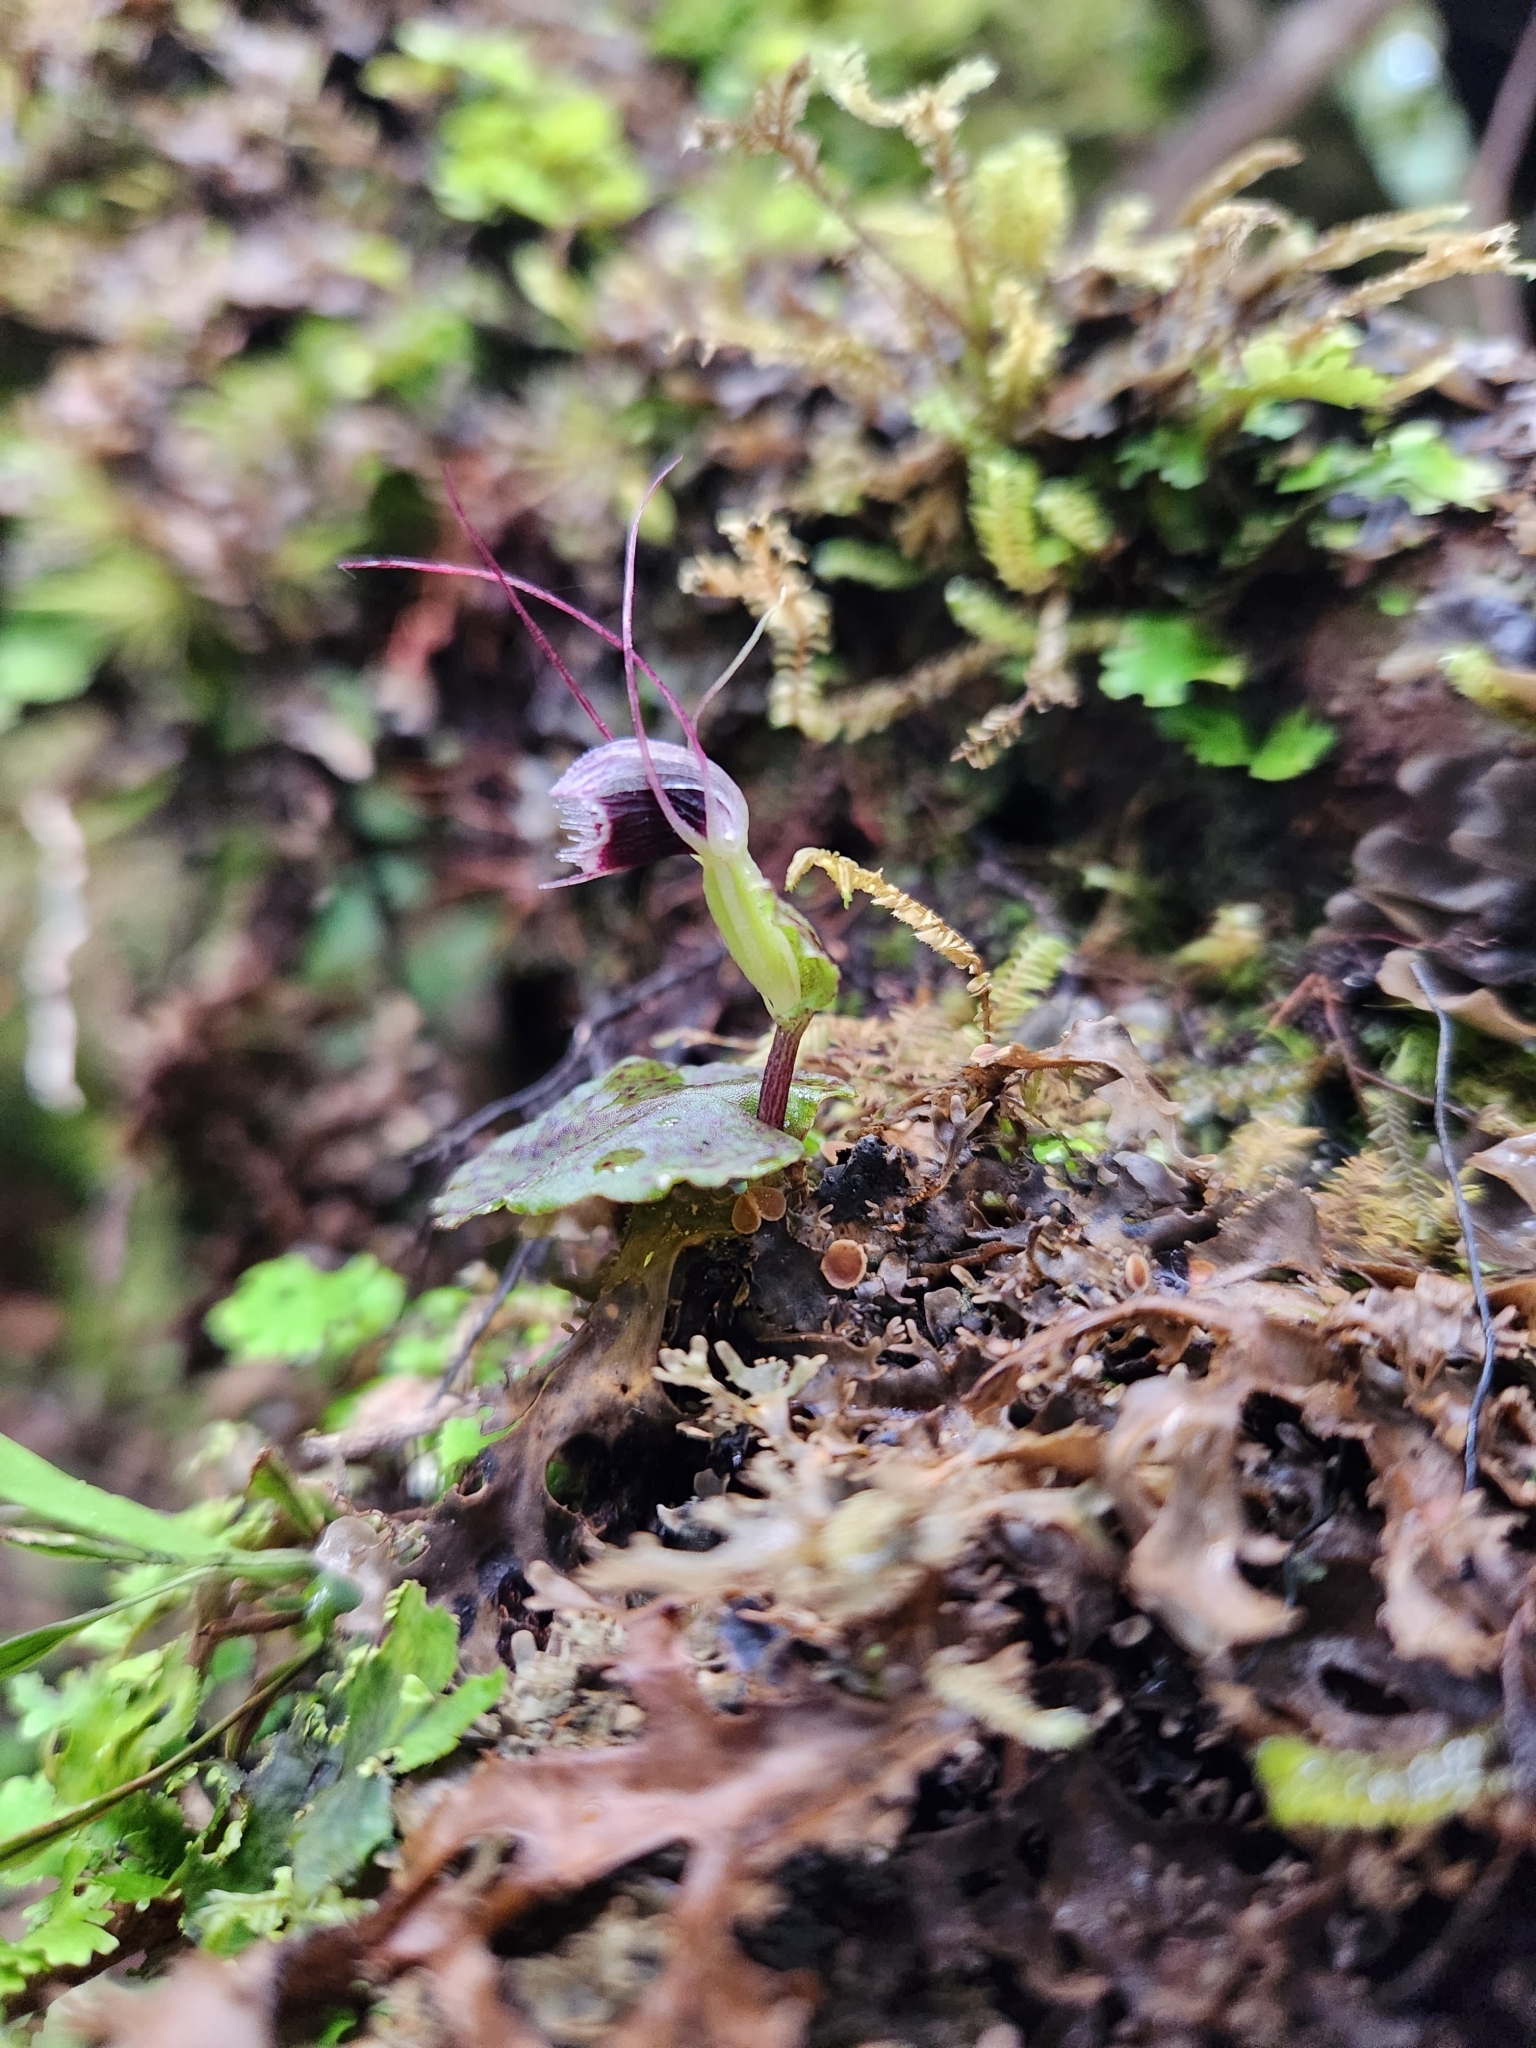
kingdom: Plantae
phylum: Tracheophyta
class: Liliopsida
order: Asparagales
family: Orchidaceae
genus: Corybas
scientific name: Corybas oblongus
